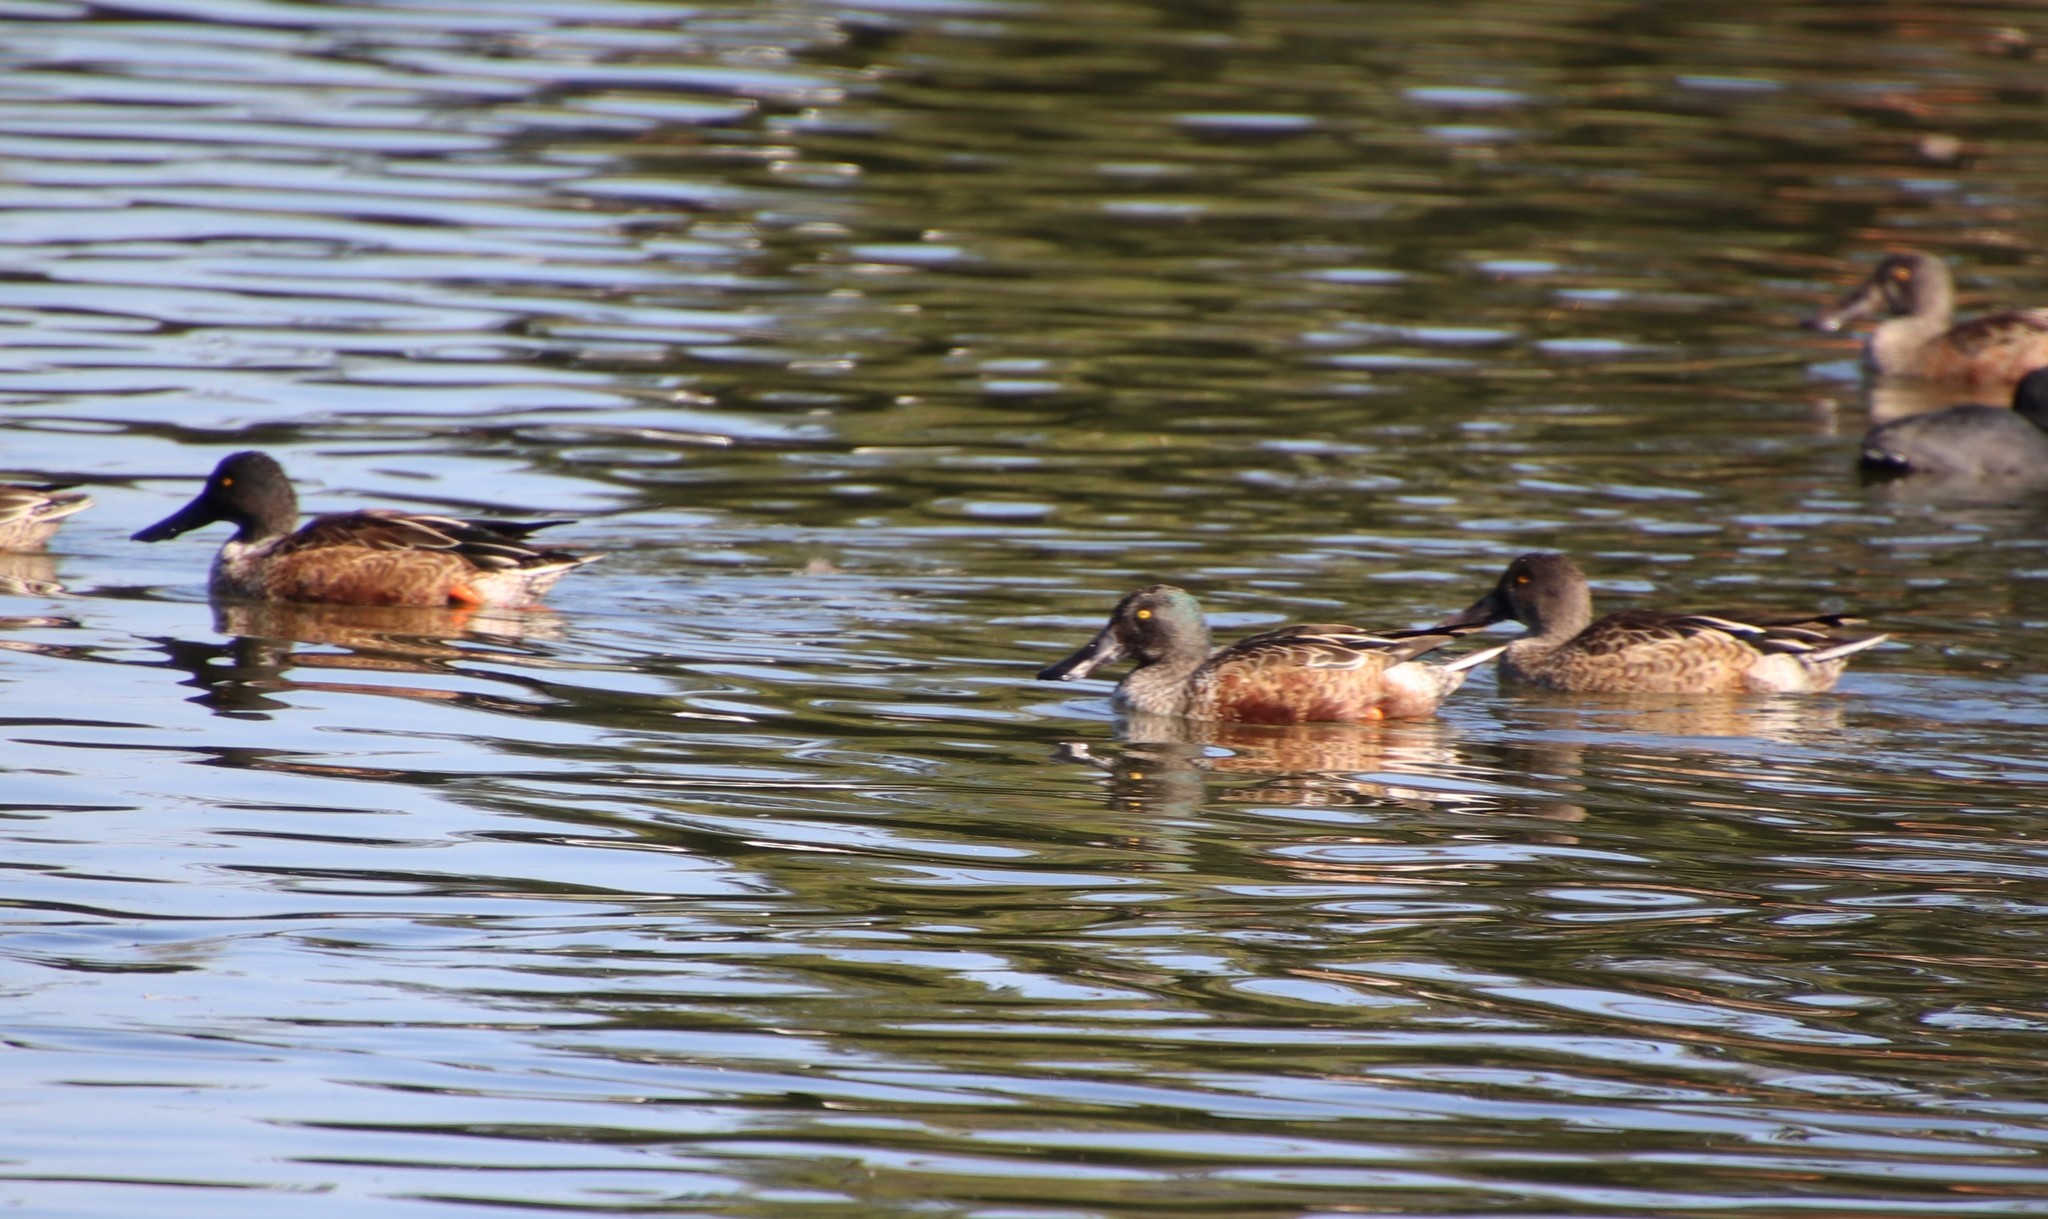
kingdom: Animalia
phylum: Chordata
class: Aves
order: Anseriformes
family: Anatidae
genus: Spatula
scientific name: Spatula clypeata
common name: Northern shoveler
